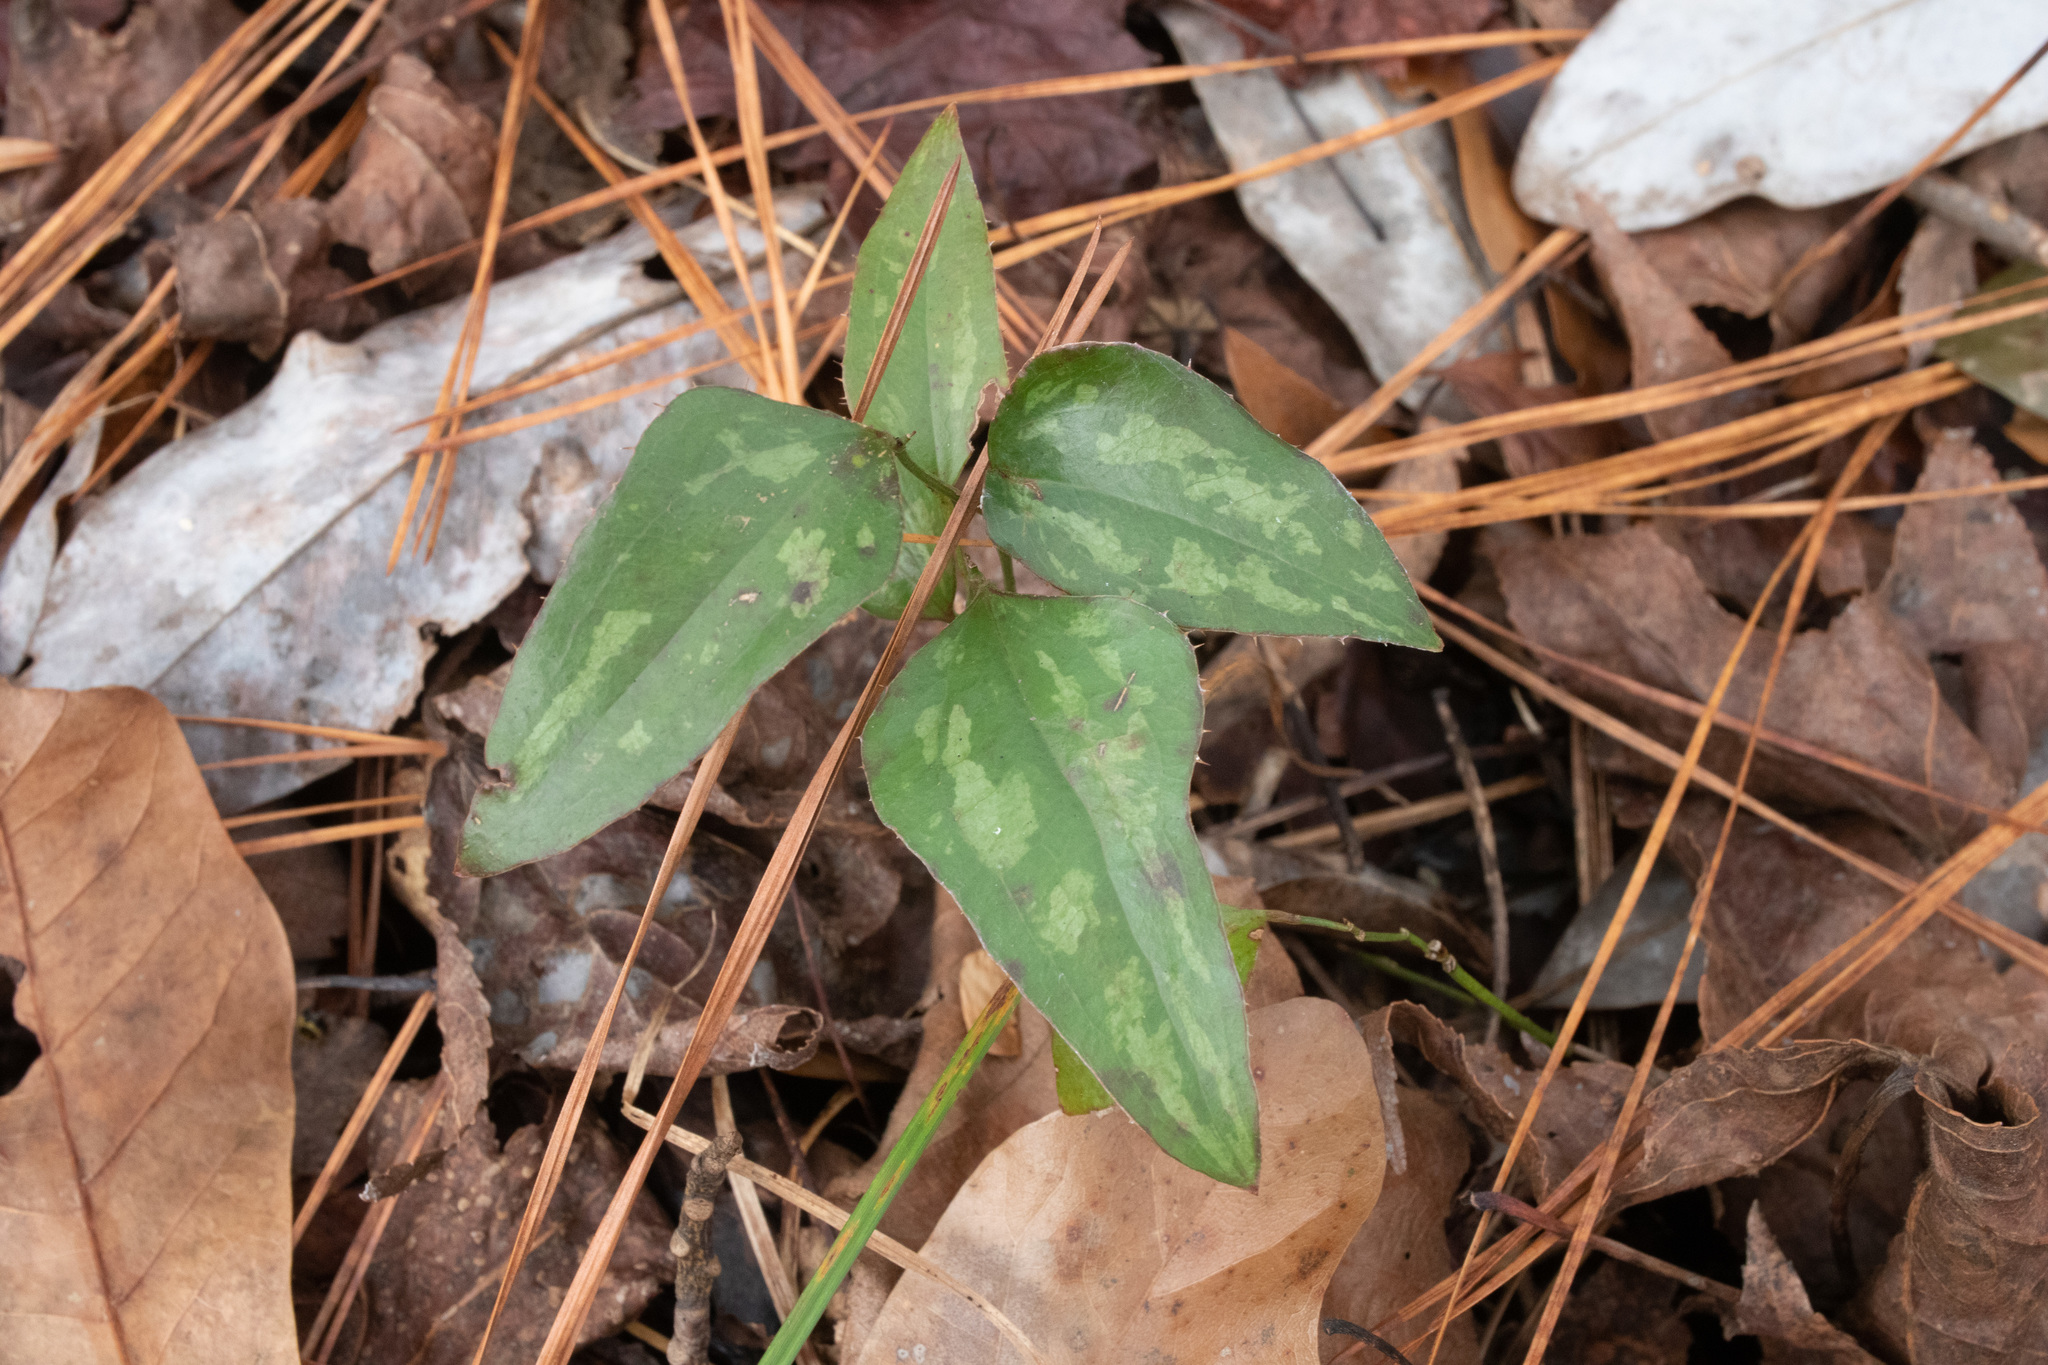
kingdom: Plantae
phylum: Tracheophyta
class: Liliopsida
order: Liliales
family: Smilacaceae
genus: Smilax
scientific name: Smilax bona-nox
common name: Catbrier
